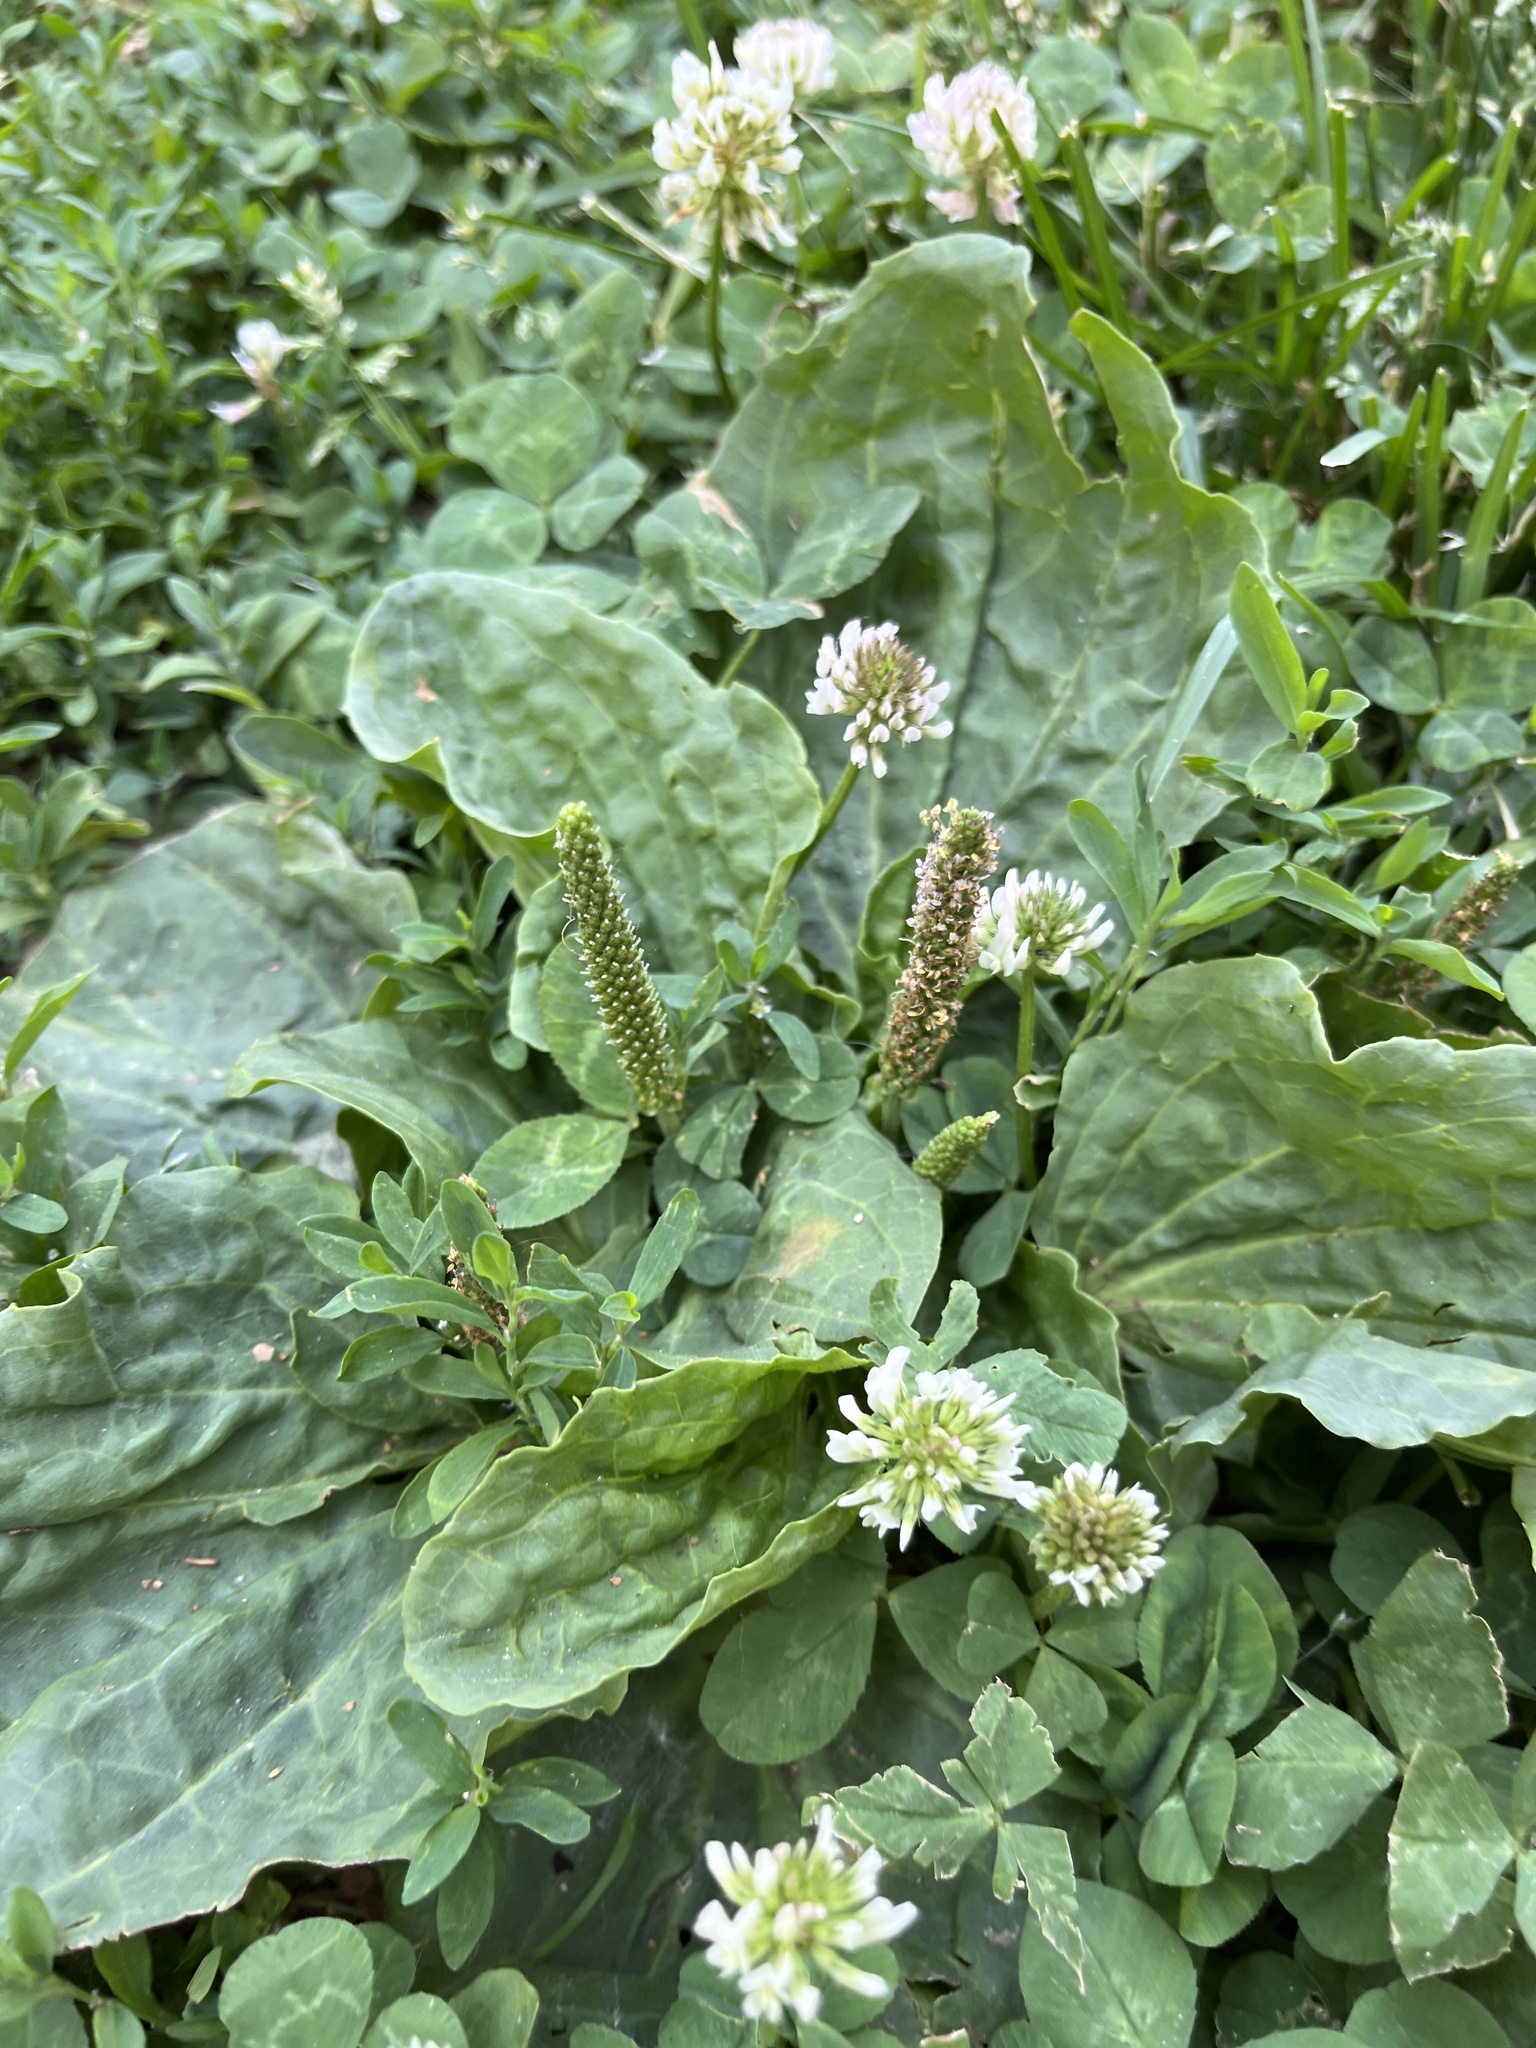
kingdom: Plantae
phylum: Tracheophyta
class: Magnoliopsida
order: Lamiales
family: Plantaginaceae
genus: Plantago
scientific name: Plantago major
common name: Common plantain
